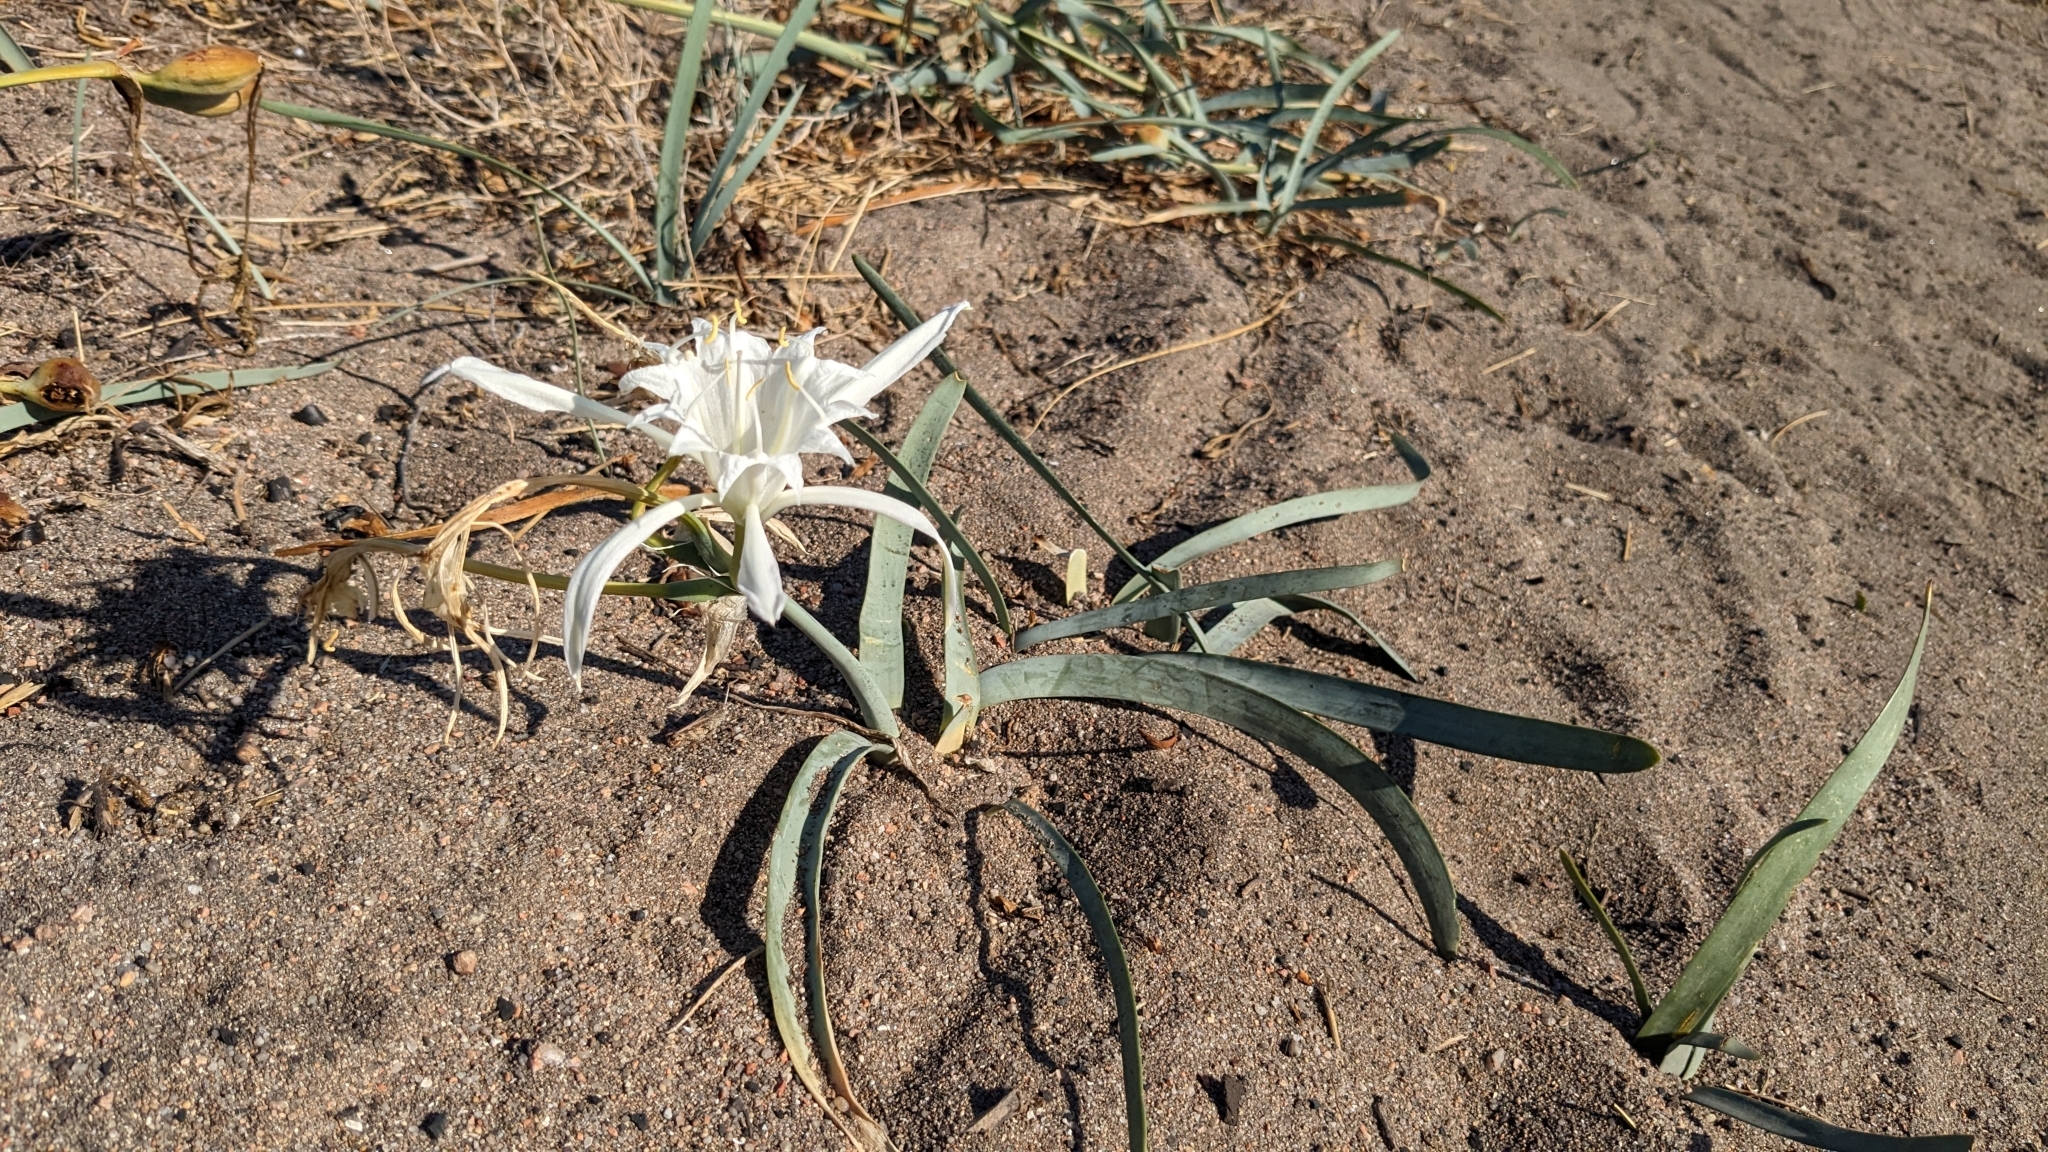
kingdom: Plantae
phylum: Tracheophyta
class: Liliopsida
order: Asparagales
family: Amaryllidaceae
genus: Pancratium
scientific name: Pancratium maritimum
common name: Sea-daffodil
